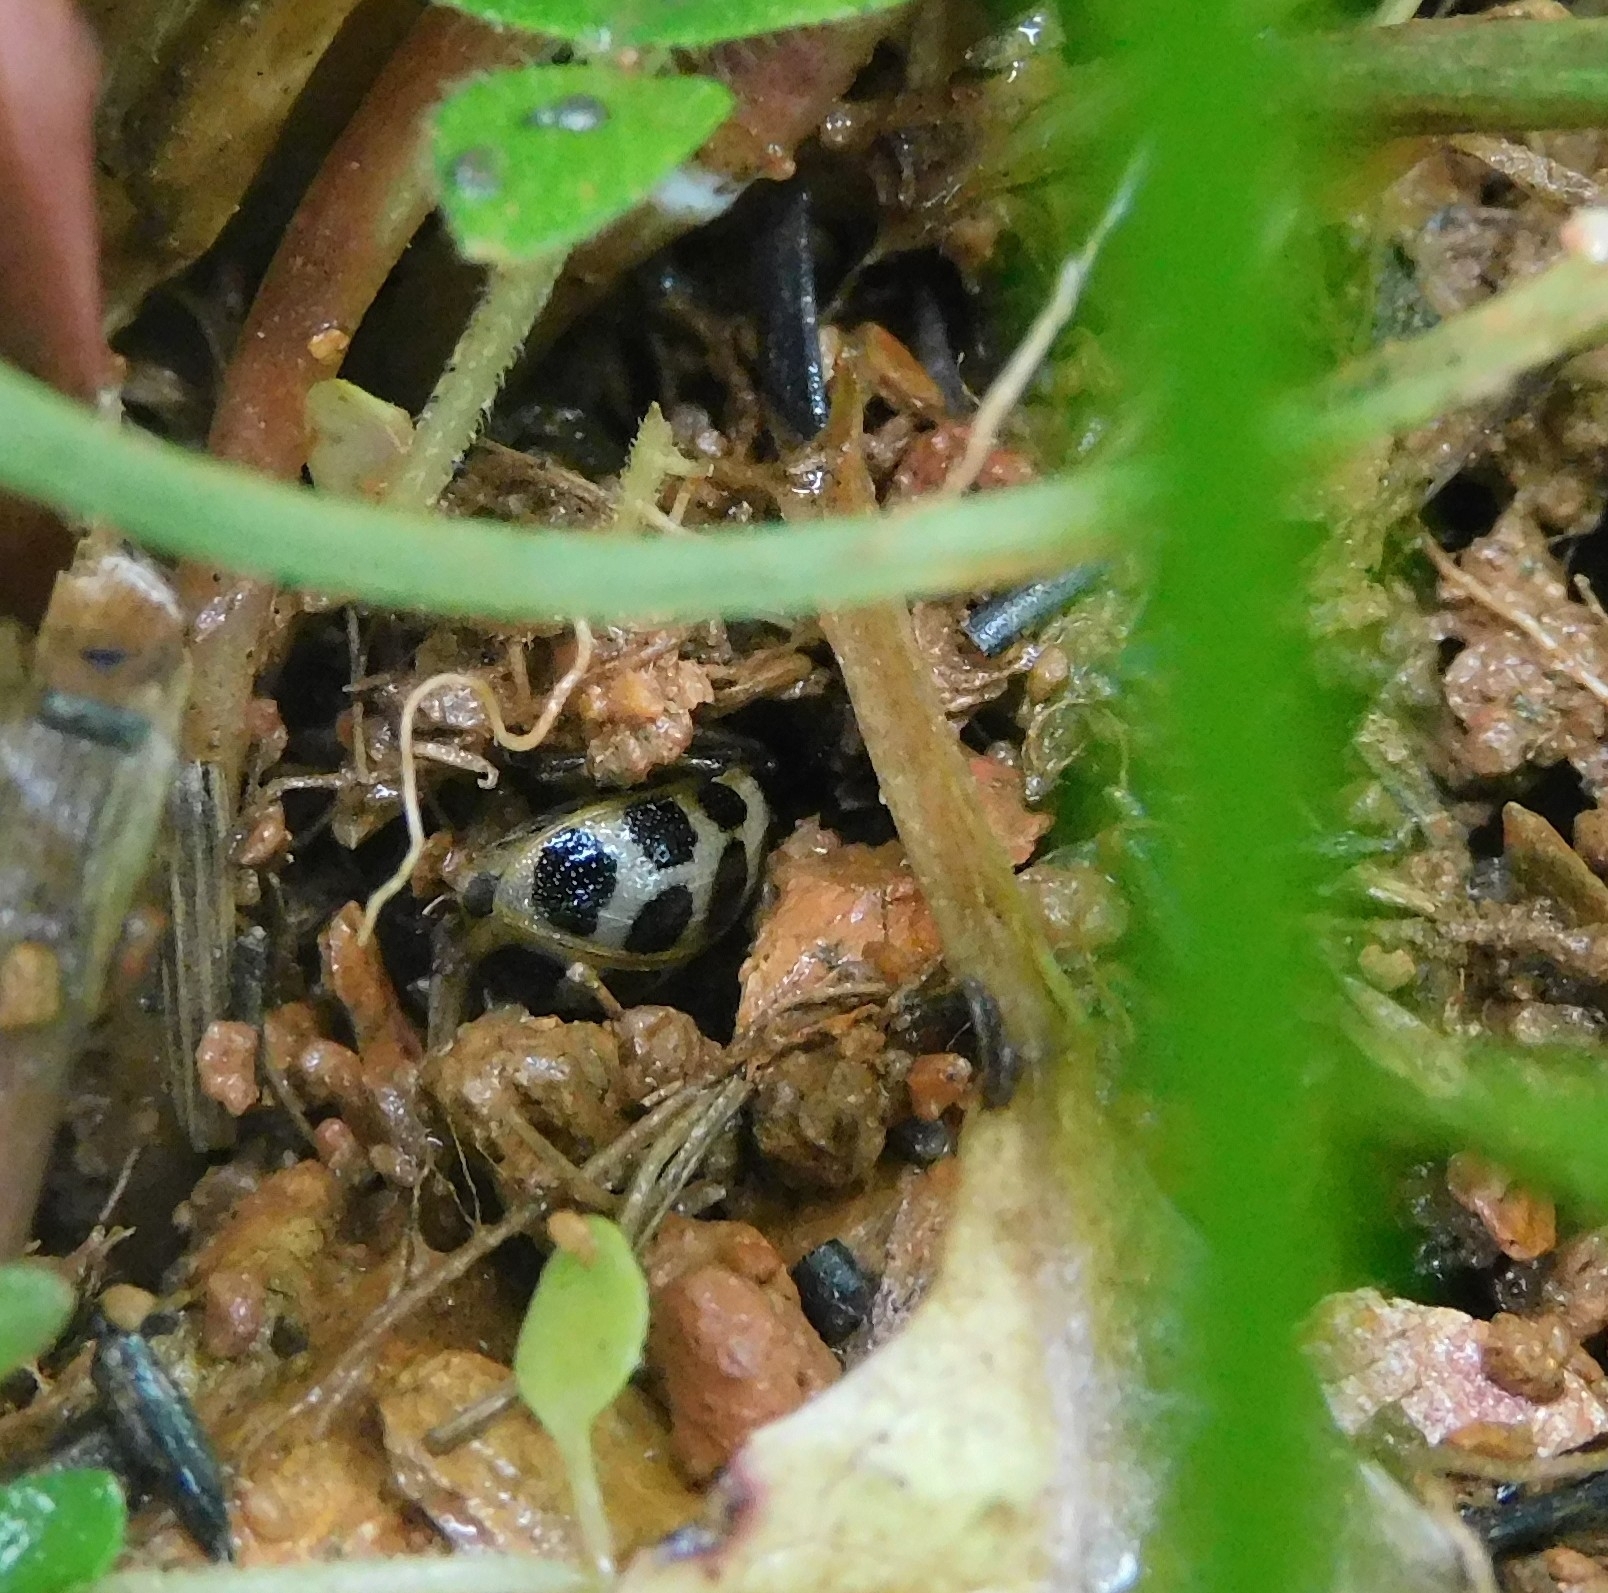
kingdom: Animalia
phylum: Arthropoda
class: Insecta
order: Coleoptera
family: Chrysomelidae
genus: Sphenoraia
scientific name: Sphenoraia
